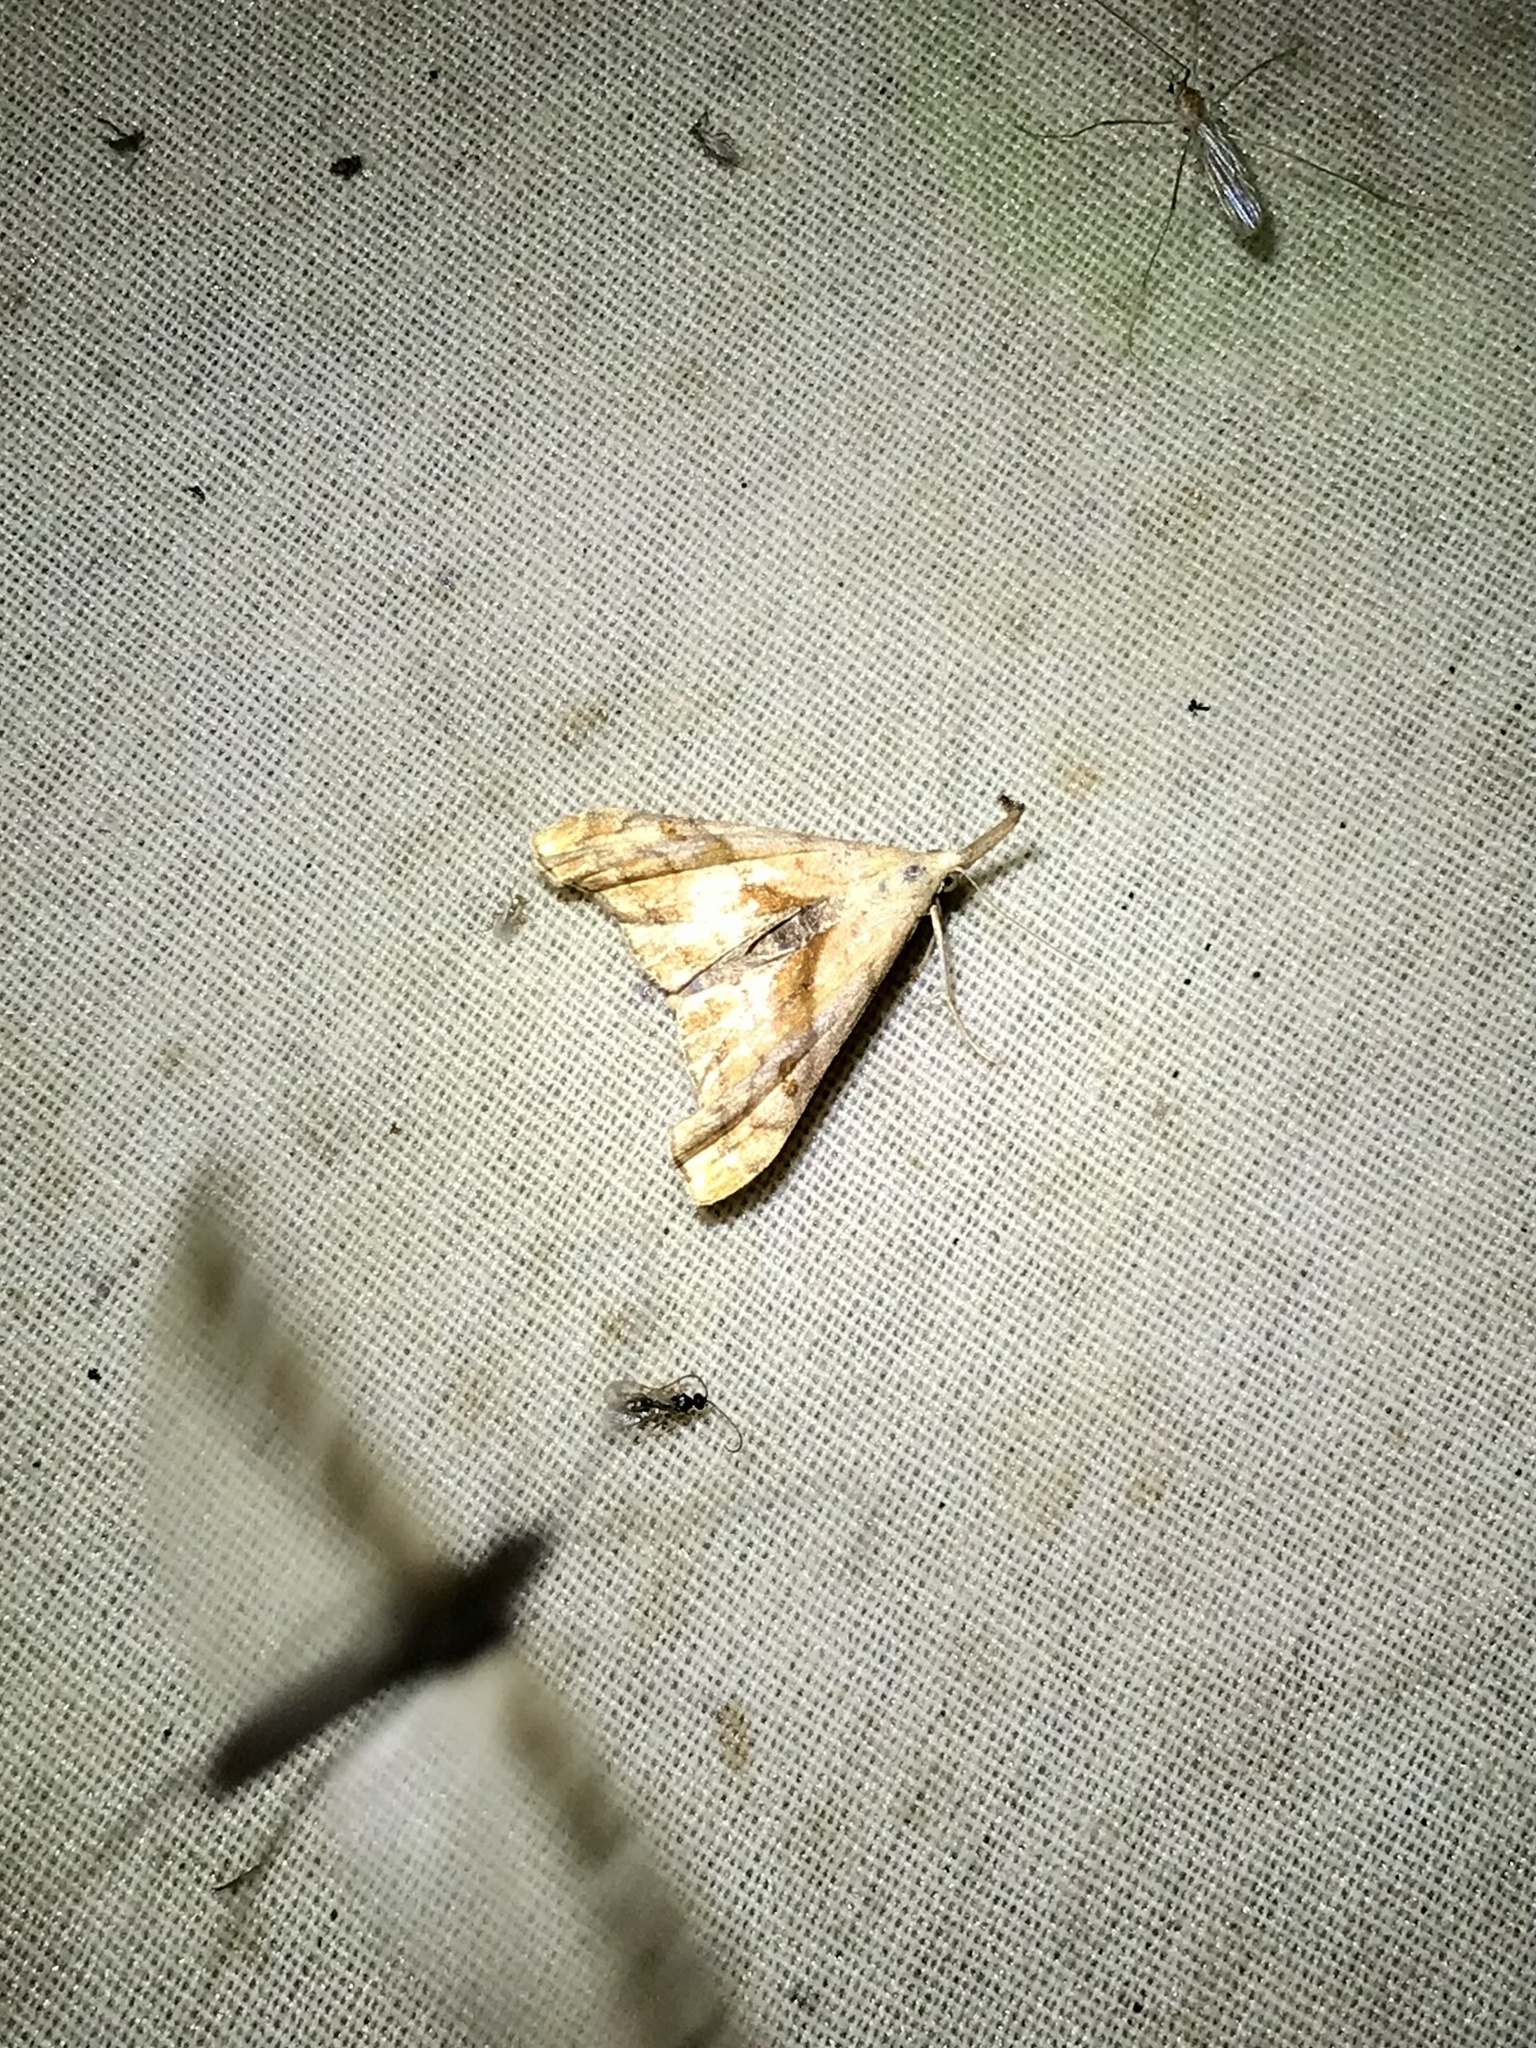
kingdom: Animalia
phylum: Arthropoda
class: Insecta
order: Lepidoptera
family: Erebidae
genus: Palthis
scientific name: Palthis angulalis
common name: Dark-spotted palthis moth
